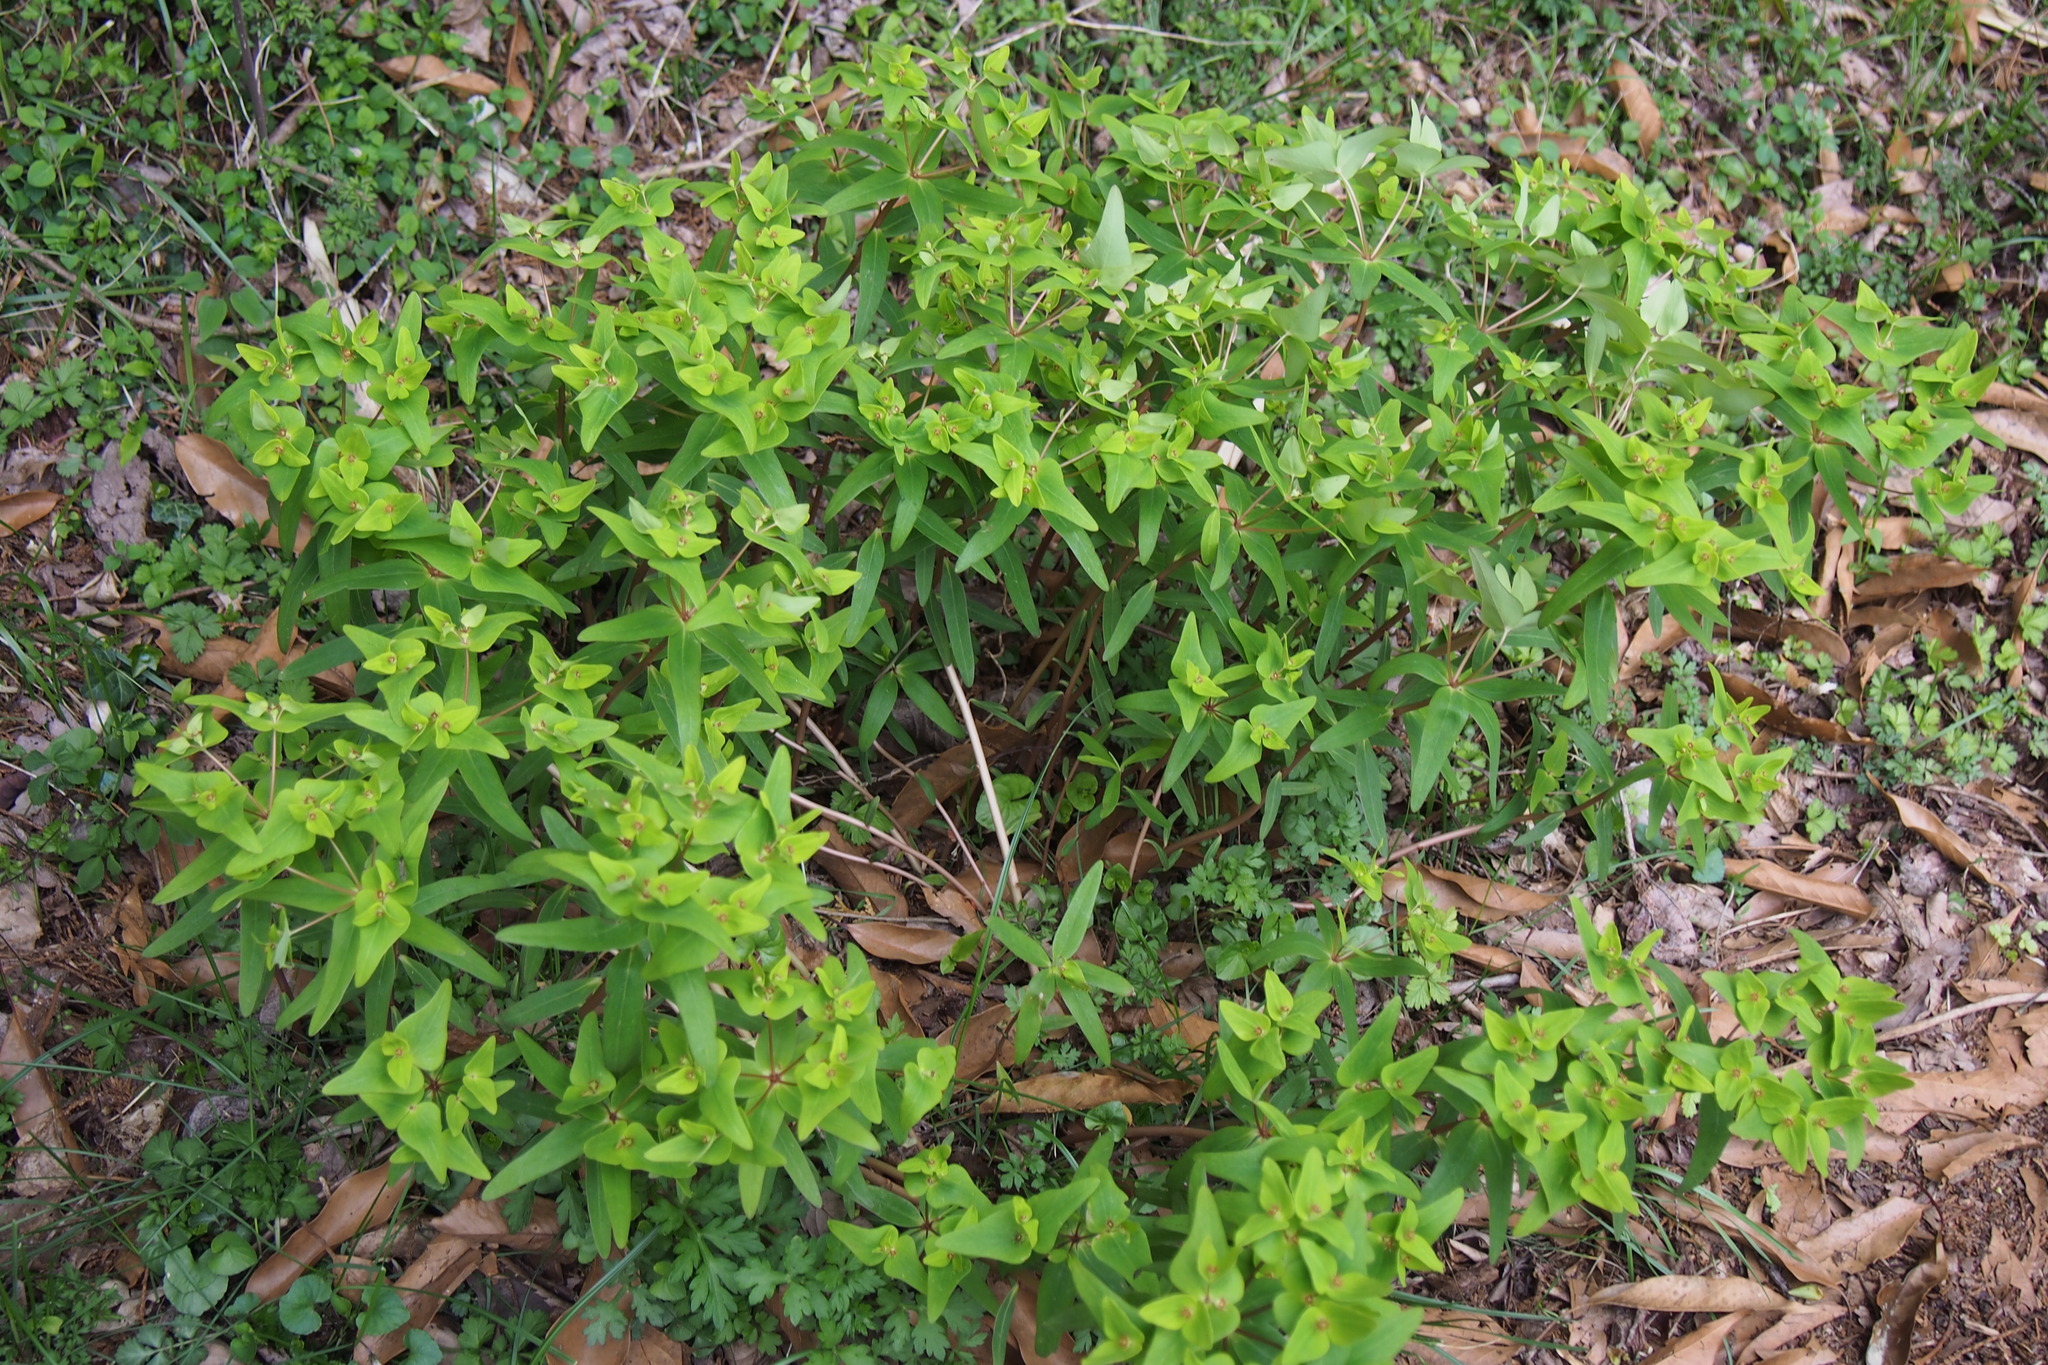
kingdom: Plantae
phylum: Tracheophyta
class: Magnoliopsida
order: Malpighiales
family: Euphorbiaceae
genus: Euphorbia
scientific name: Euphorbia sieboldiana
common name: Siebold's spurge
